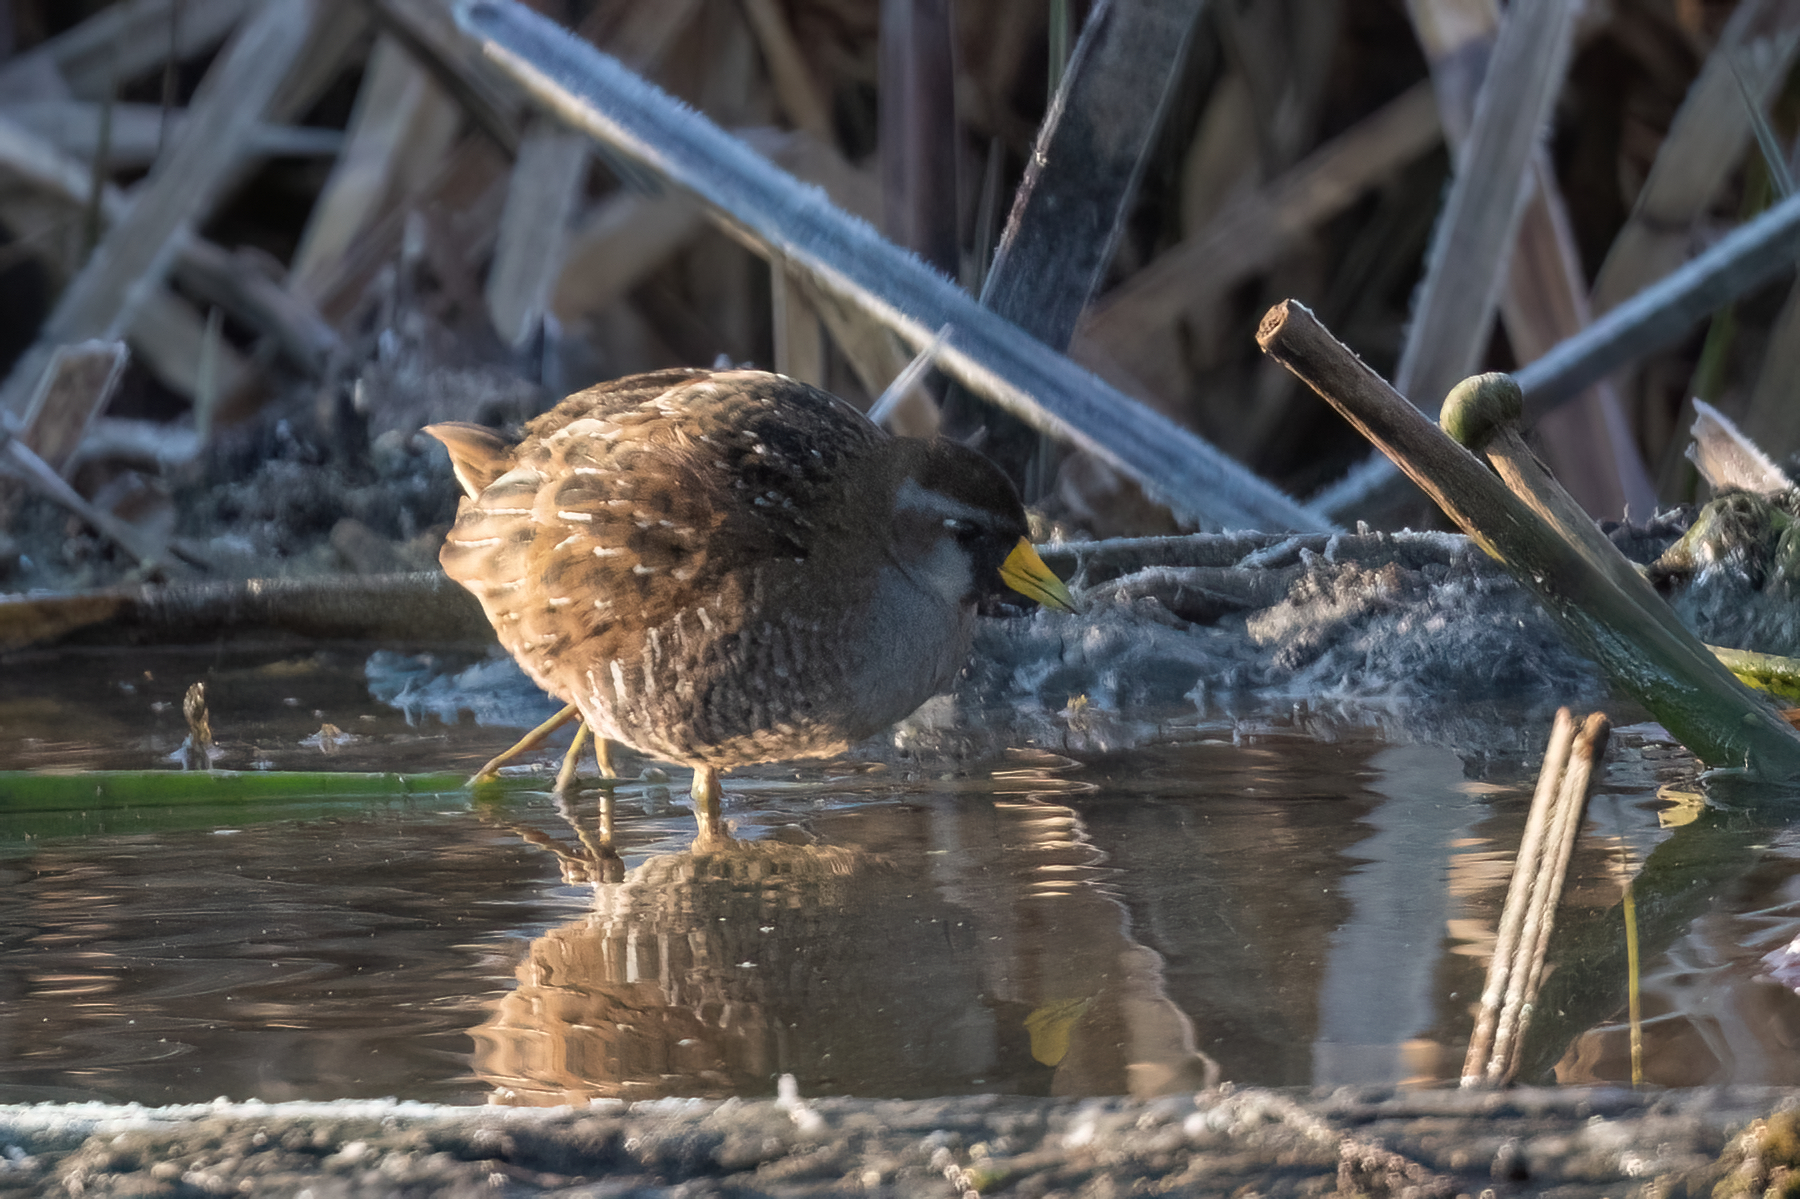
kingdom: Animalia
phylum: Chordata
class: Aves
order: Gruiformes
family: Rallidae
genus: Porzana
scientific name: Porzana carolina
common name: Sora
